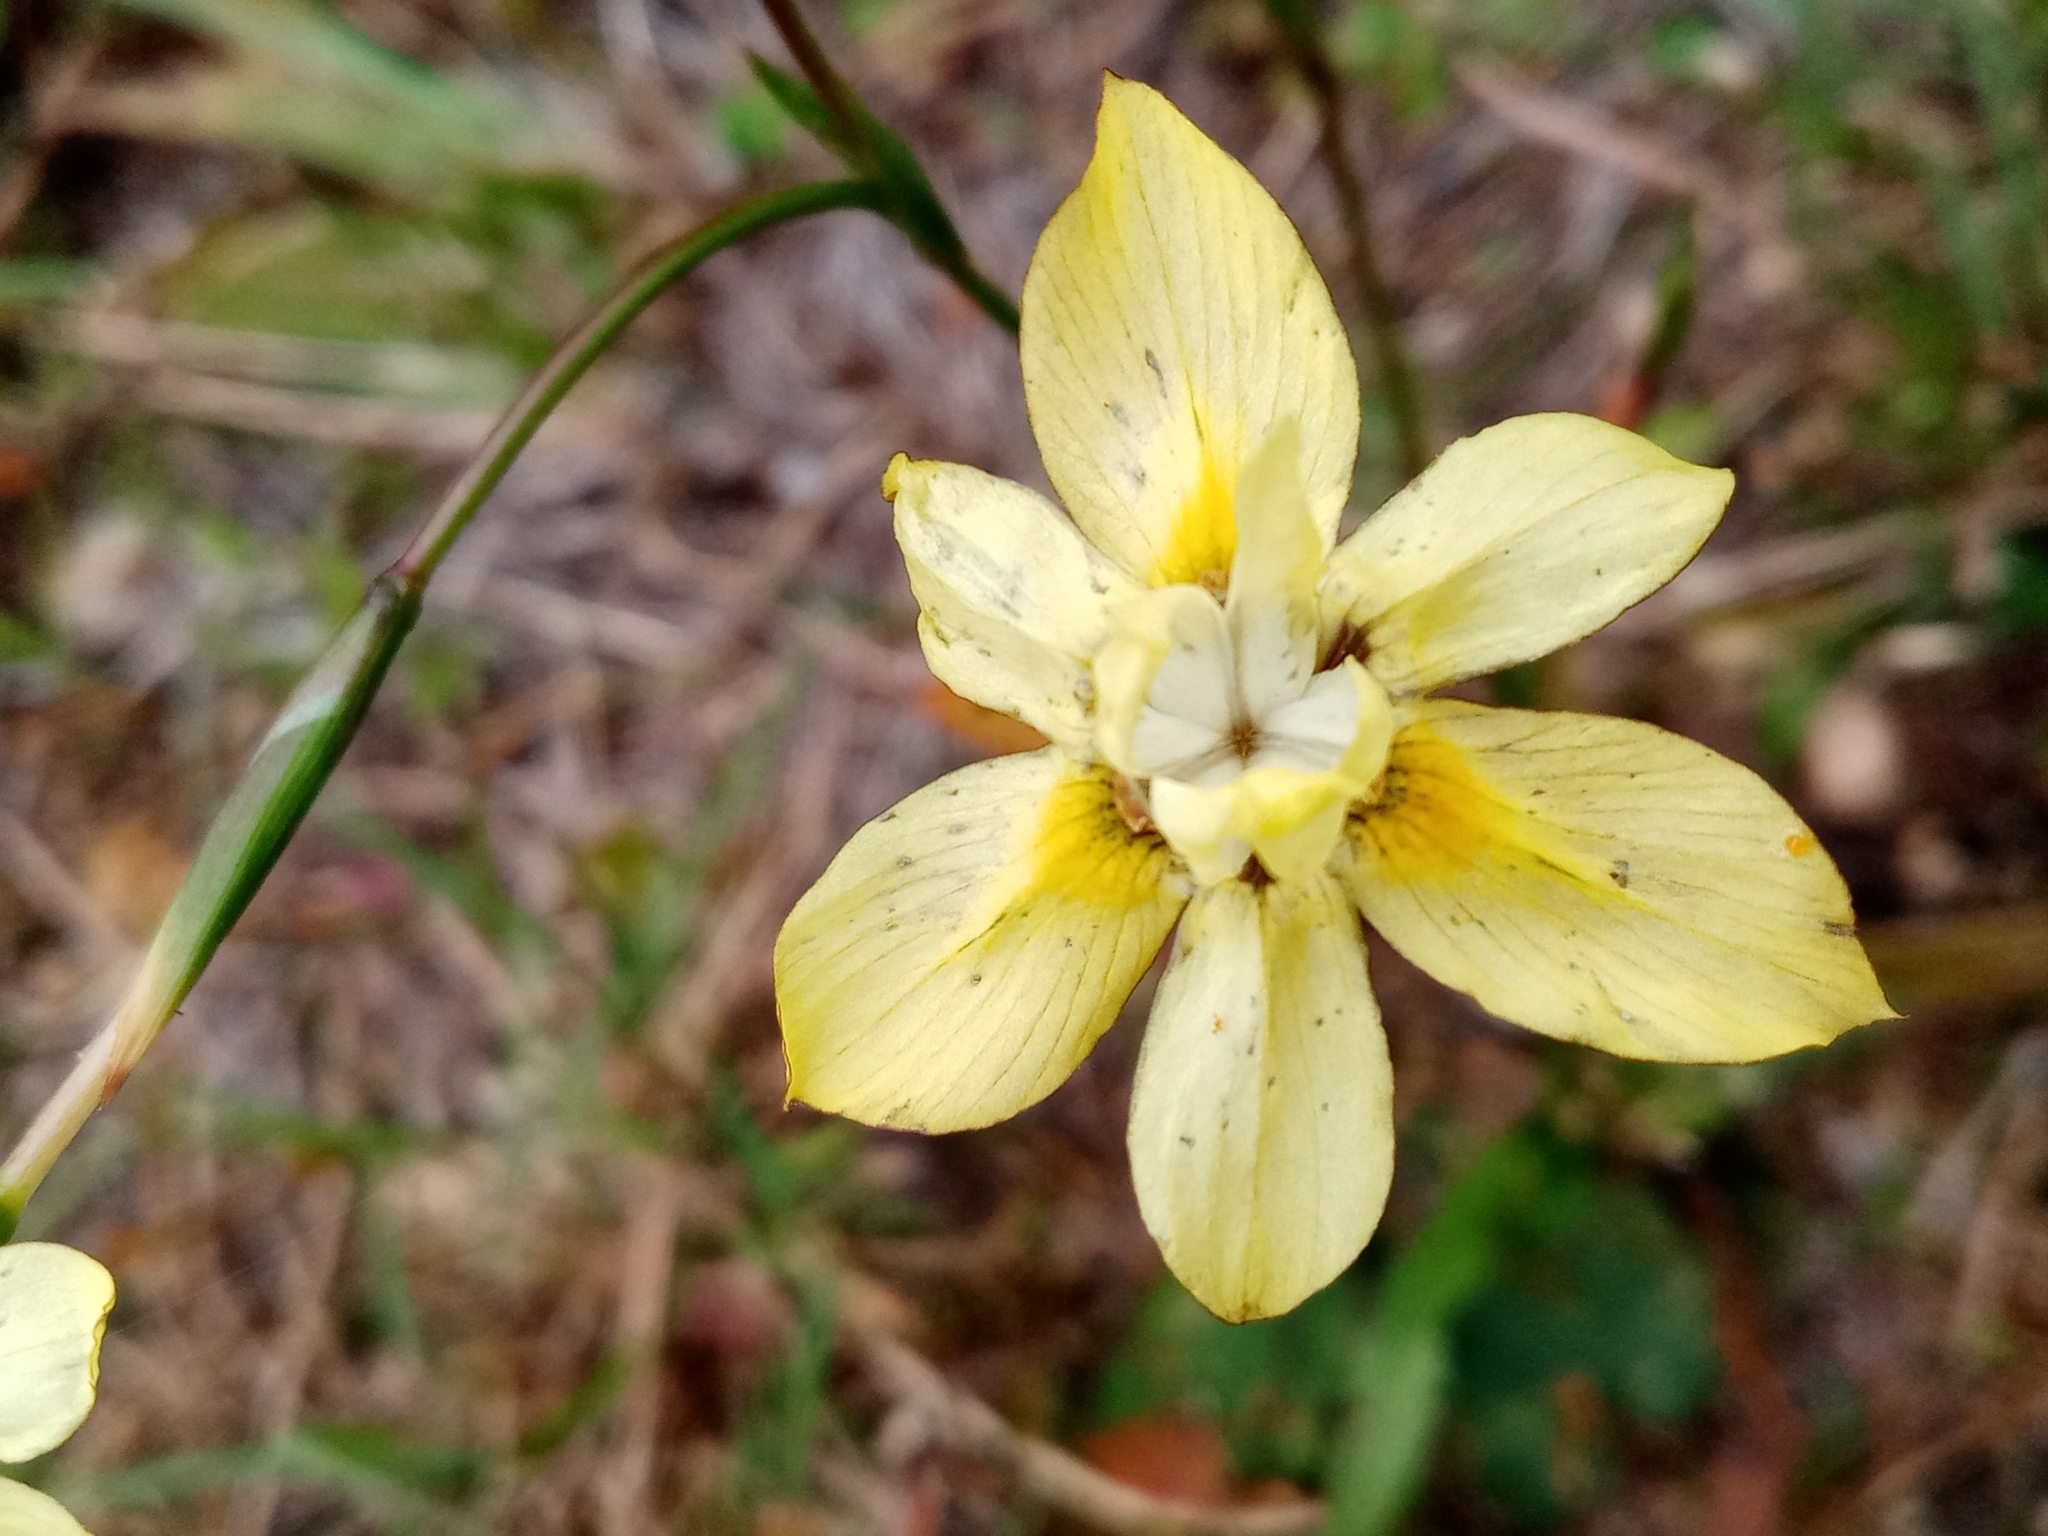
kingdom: Plantae
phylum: Tracheophyta
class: Liliopsida
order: Asparagales
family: Iridaceae
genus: Moraea
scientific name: Moraea gawleri
